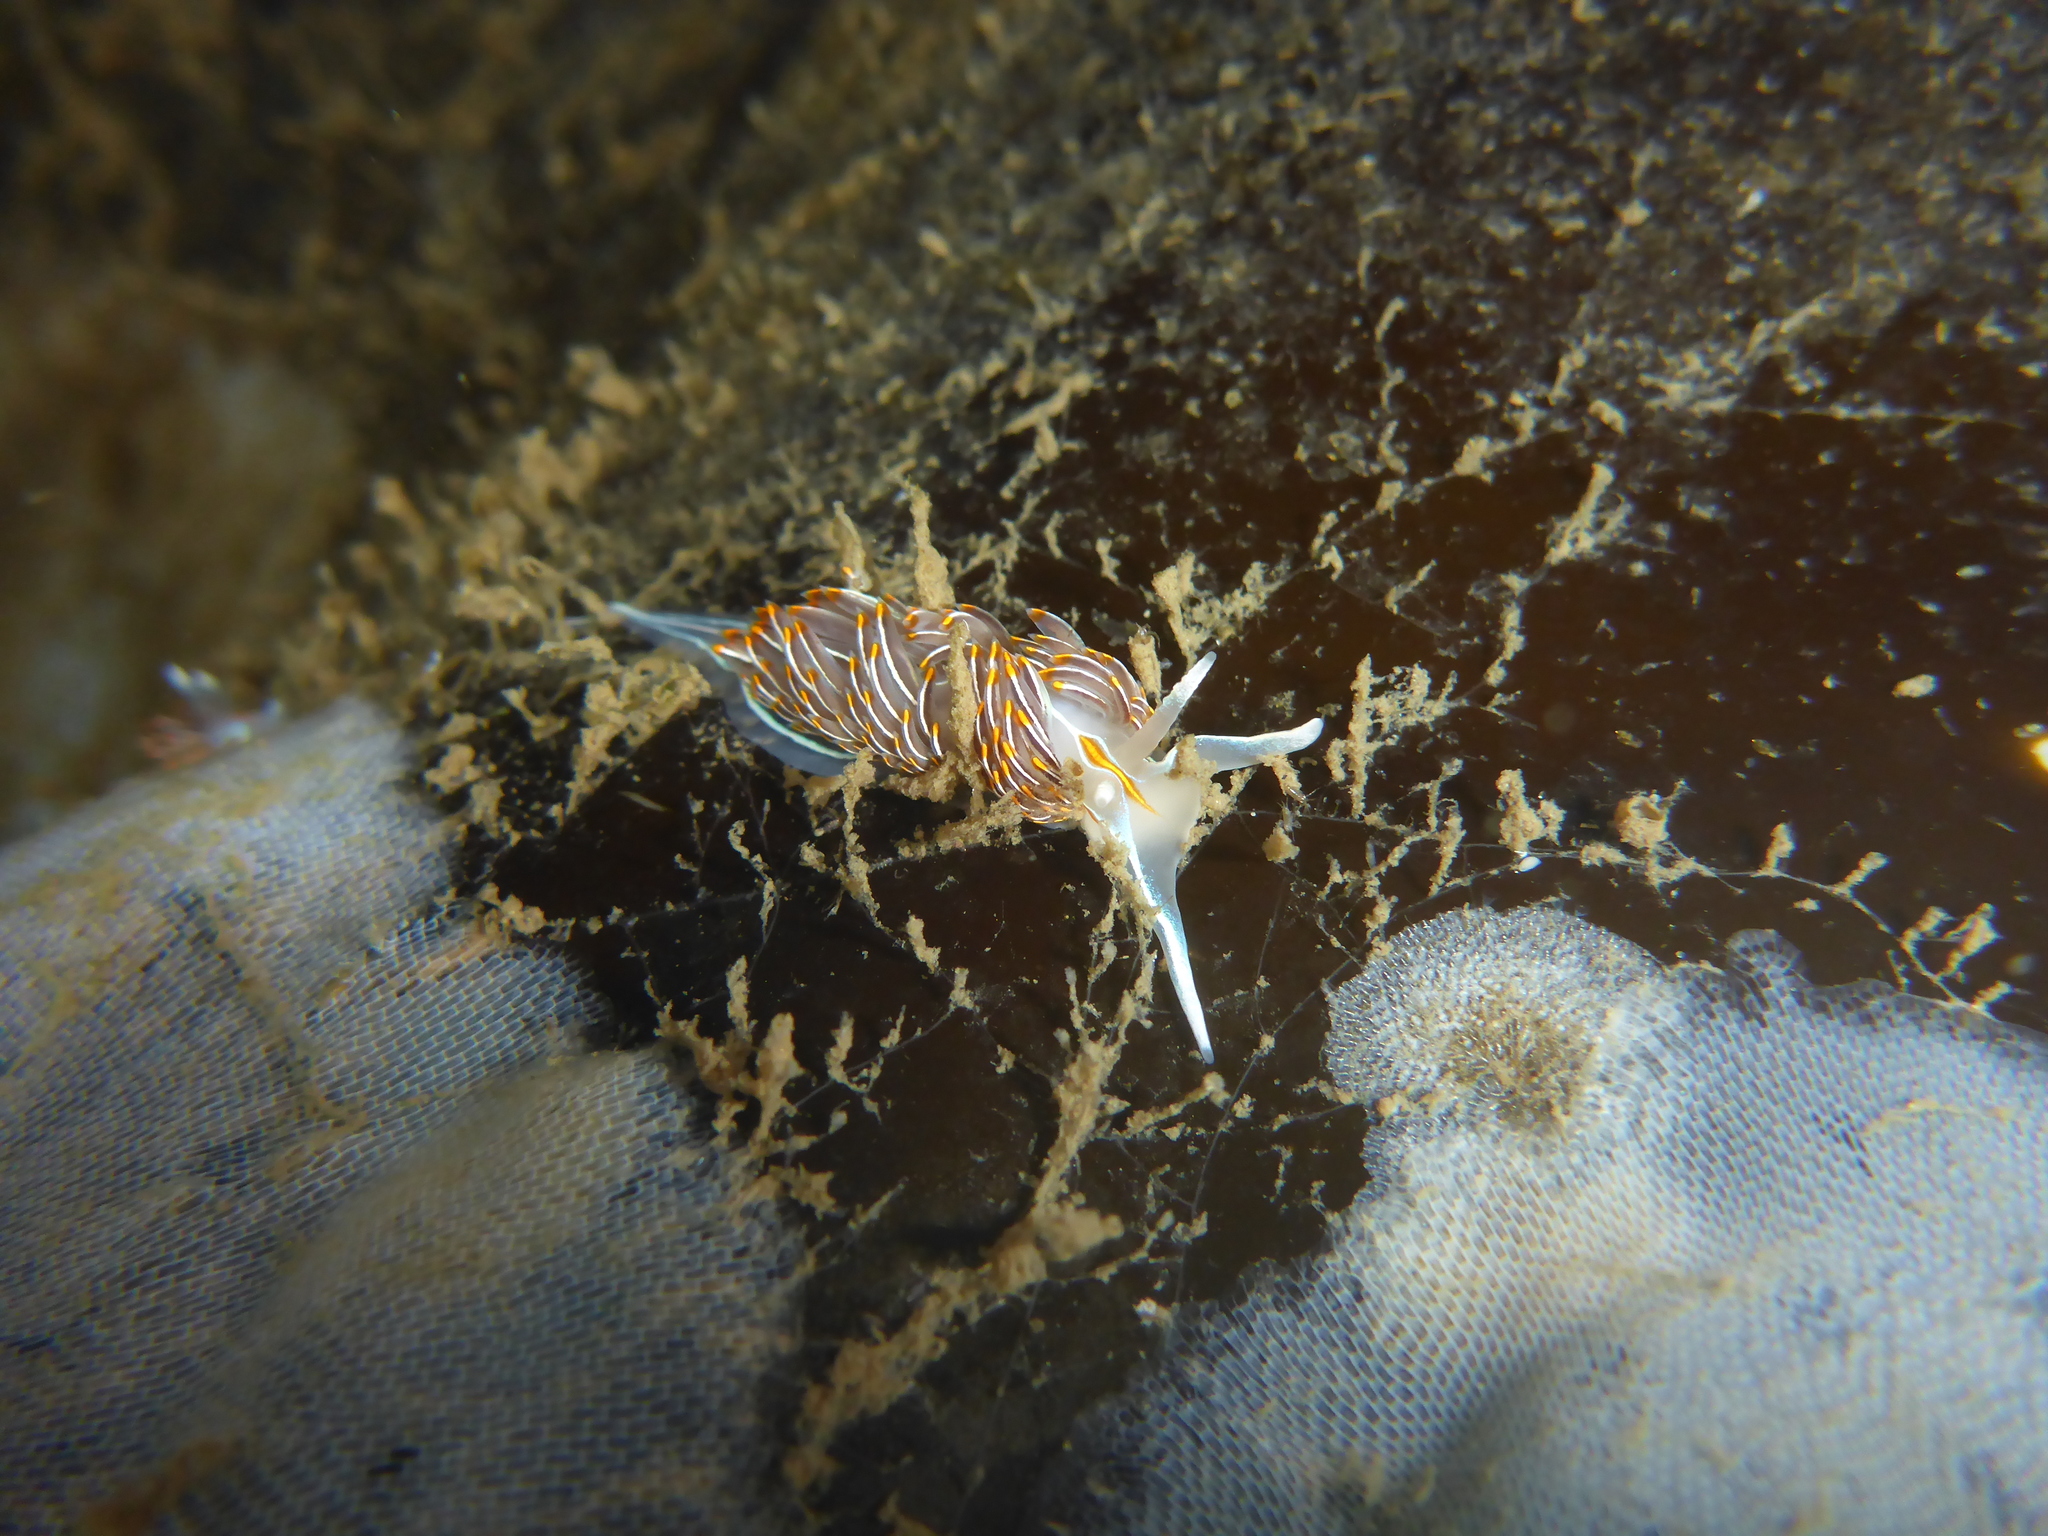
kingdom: Animalia
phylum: Mollusca
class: Gastropoda
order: Nudibranchia
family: Myrrhinidae
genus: Hermissenda
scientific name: Hermissenda crassicornis
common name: Hermissenda
